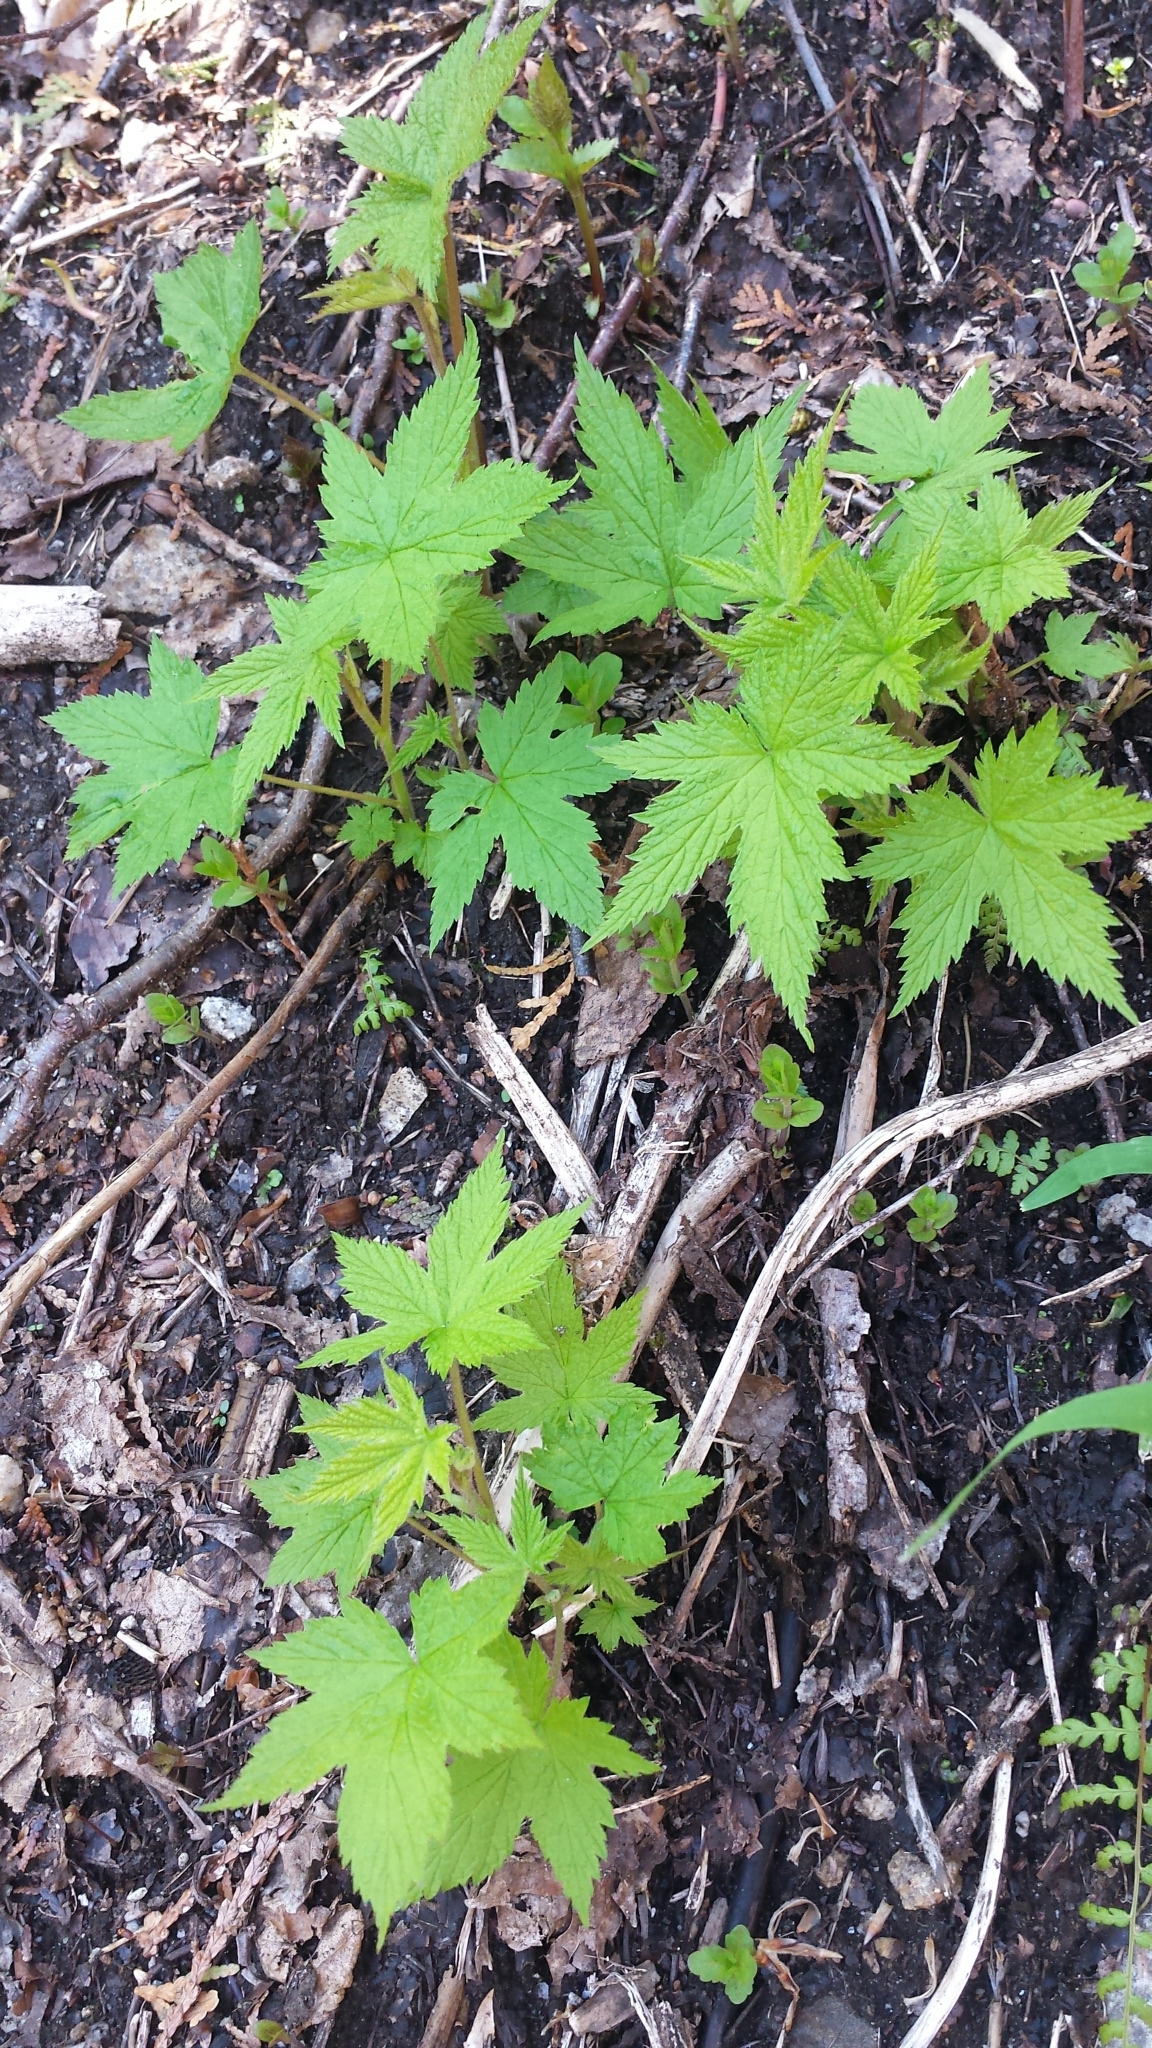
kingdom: Plantae
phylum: Tracheophyta
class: Magnoliopsida
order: Rosales
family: Rosaceae
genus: Rubus
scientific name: Rubus odoratus
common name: Purple-flowered raspberry
